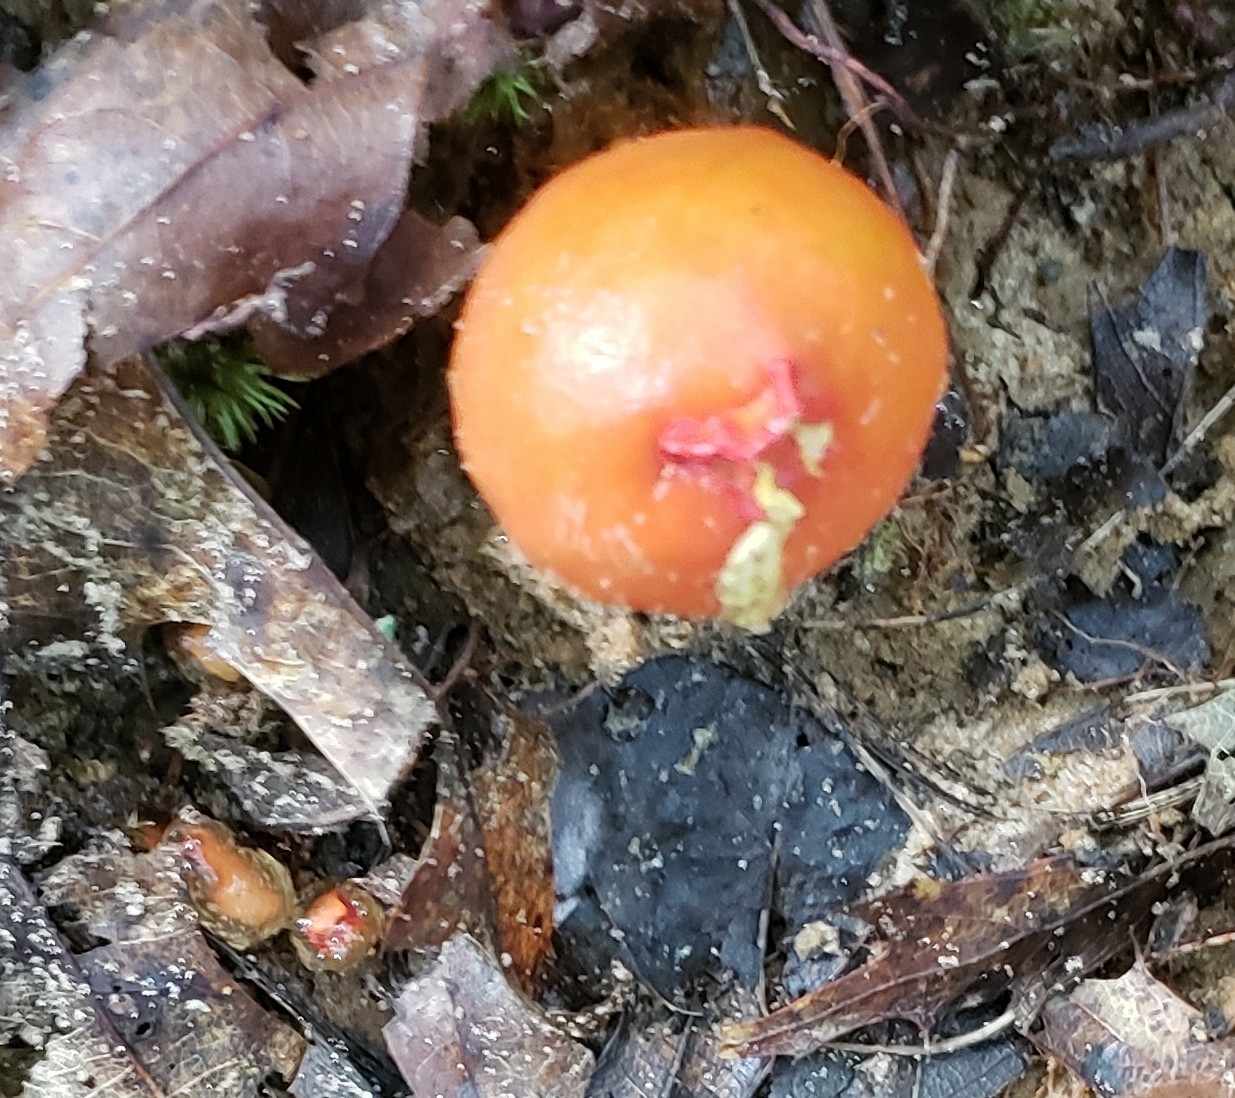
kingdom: Fungi
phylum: Basidiomycota
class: Agaricomycetes
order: Boletales
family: Calostomataceae
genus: Calostoma
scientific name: Calostoma cinnabarinum
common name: Stalked puffball-in-aspic
